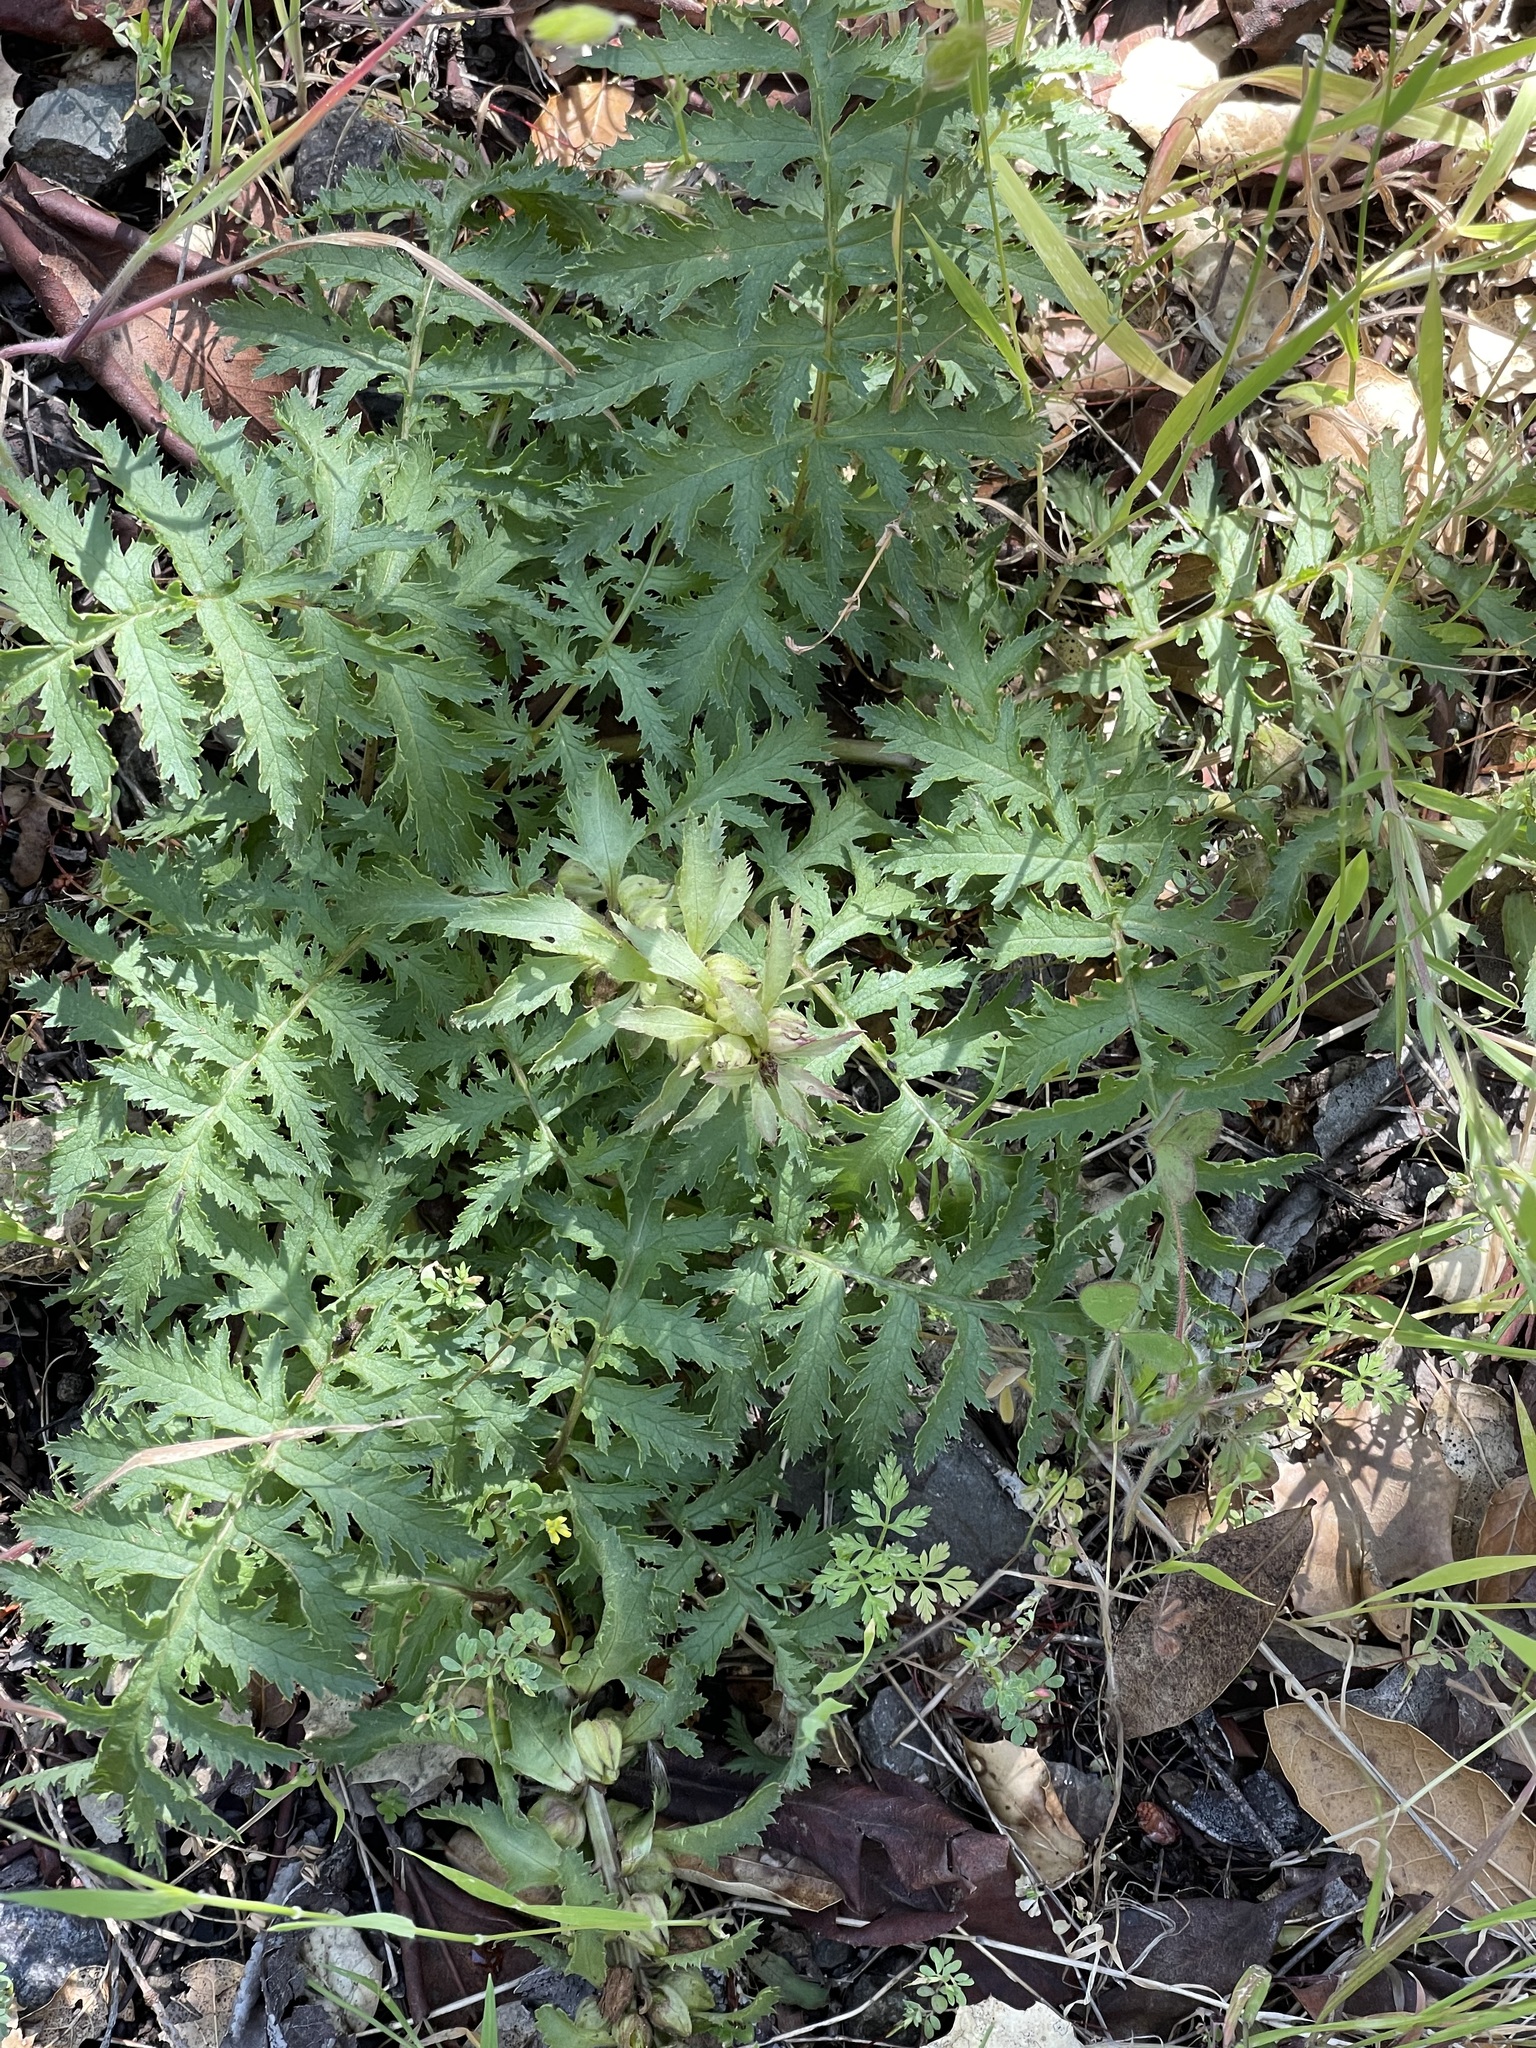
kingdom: Plantae
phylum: Tracheophyta
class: Magnoliopsida
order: Lamiales
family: Orobanchaceae
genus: Pedicularis
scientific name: Pedicularis densiflora
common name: Indian warrior
